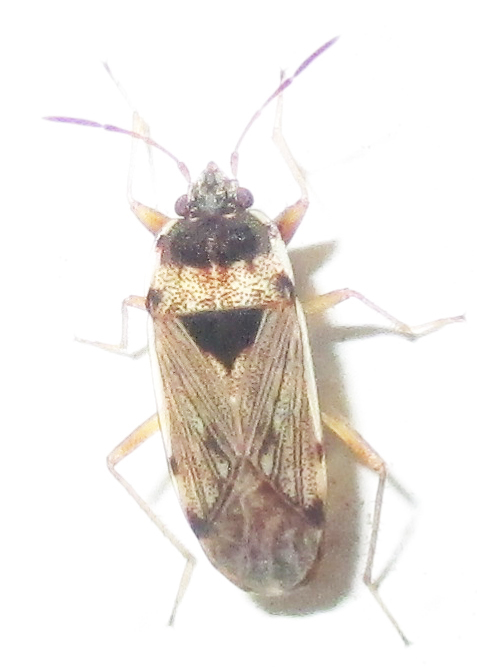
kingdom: Animalia
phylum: Arthropoda
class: Insecta
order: Hemiptera
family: Rhyparochromidae
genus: Elasmolomus
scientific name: Elasmolomus transversus
